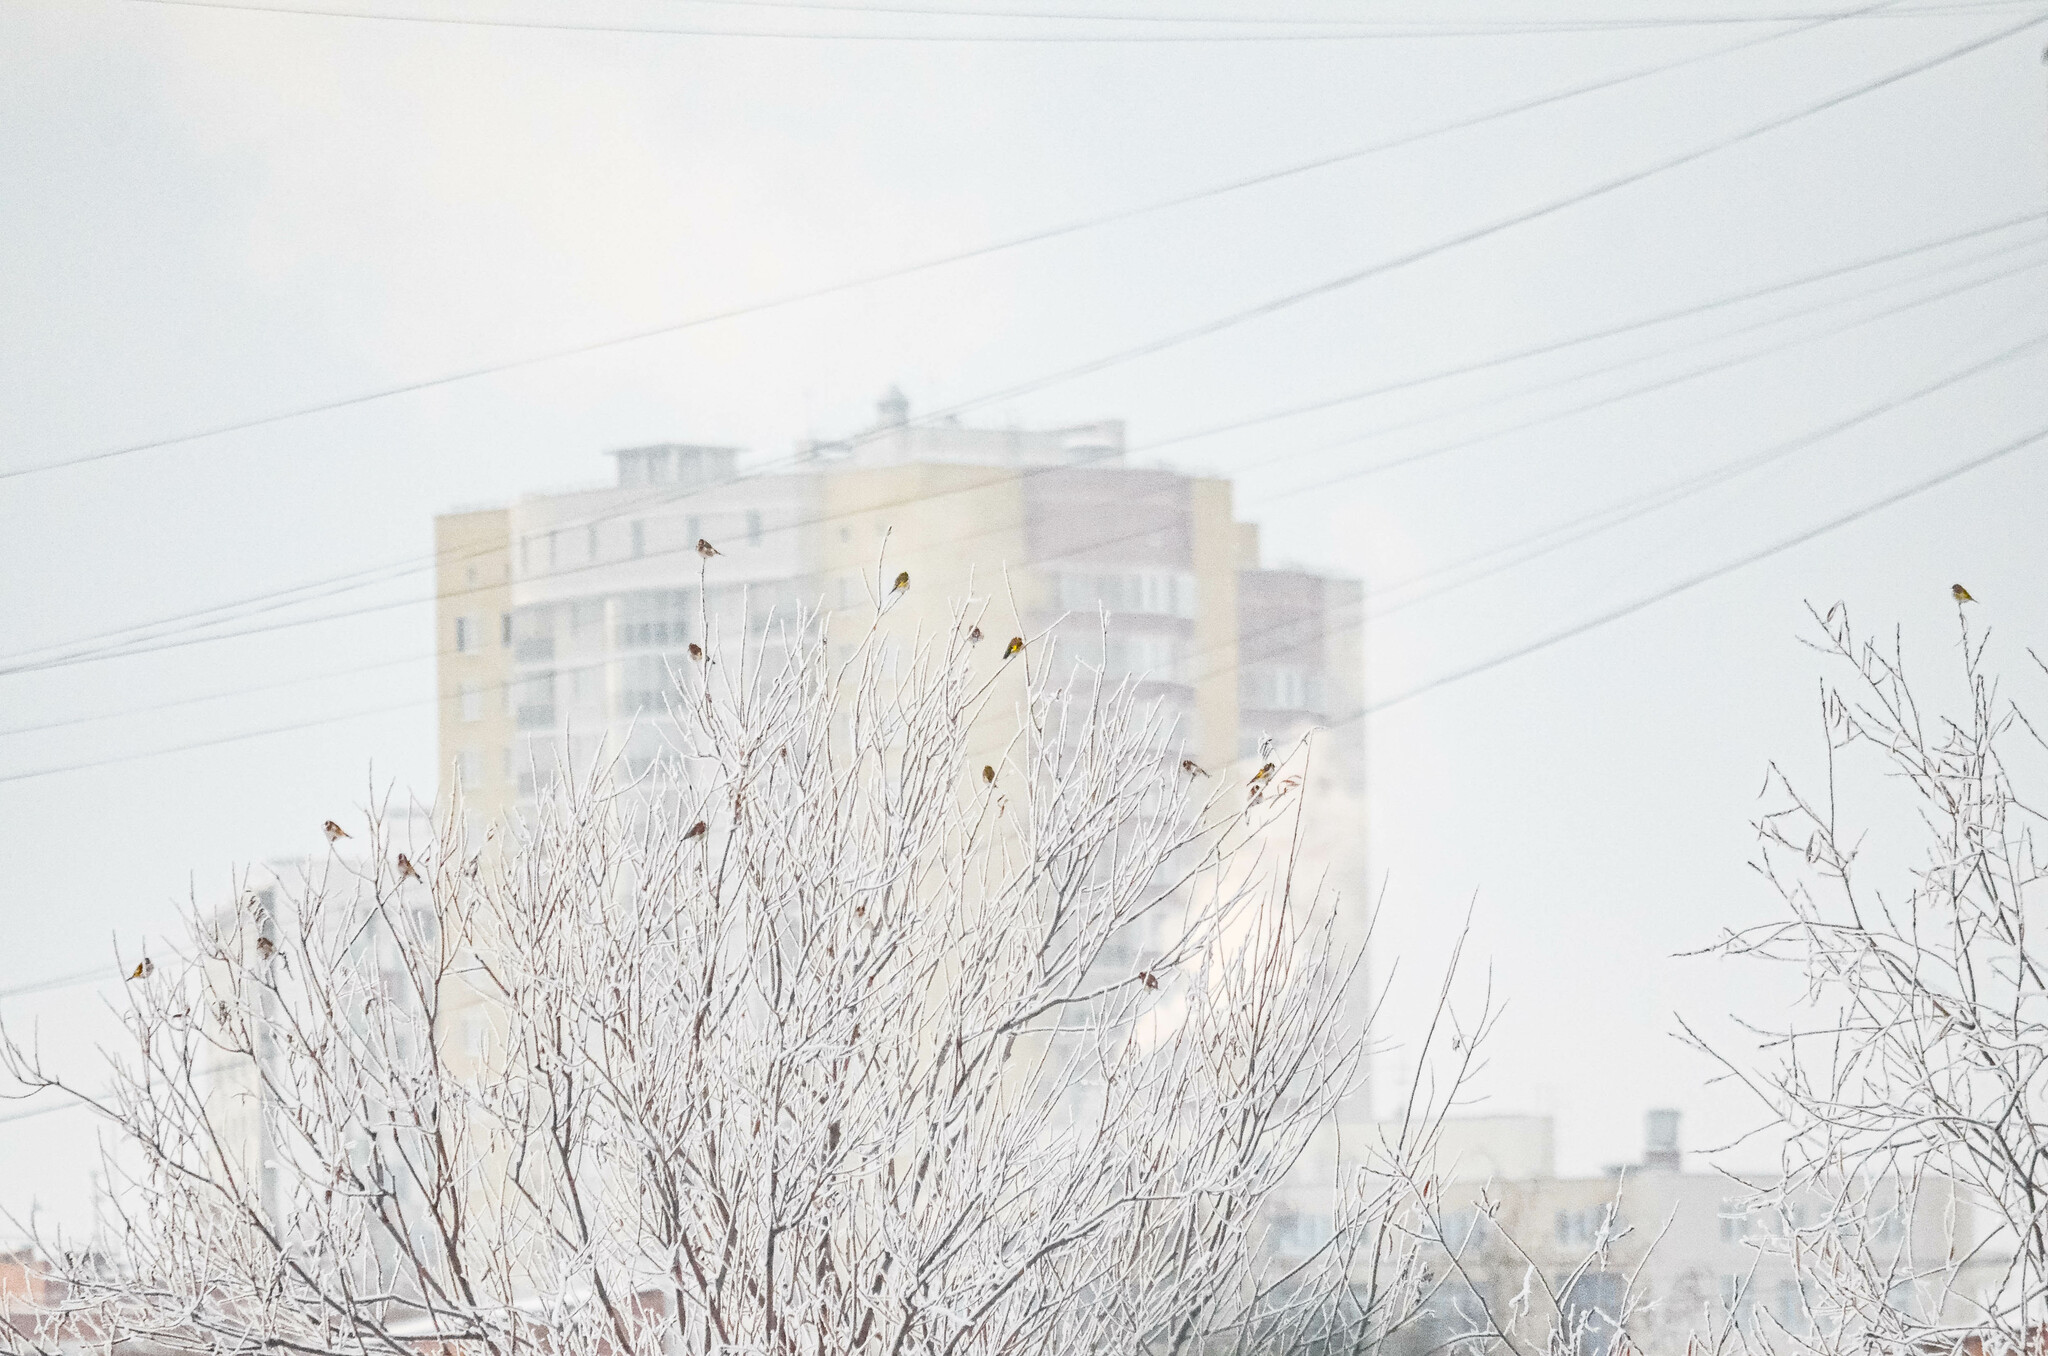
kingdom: Animalia
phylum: Chordata
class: Aves
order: Passeriformes
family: Fringillidae
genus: Carduelis
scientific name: Carduelis carduelis
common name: European goldfinch
